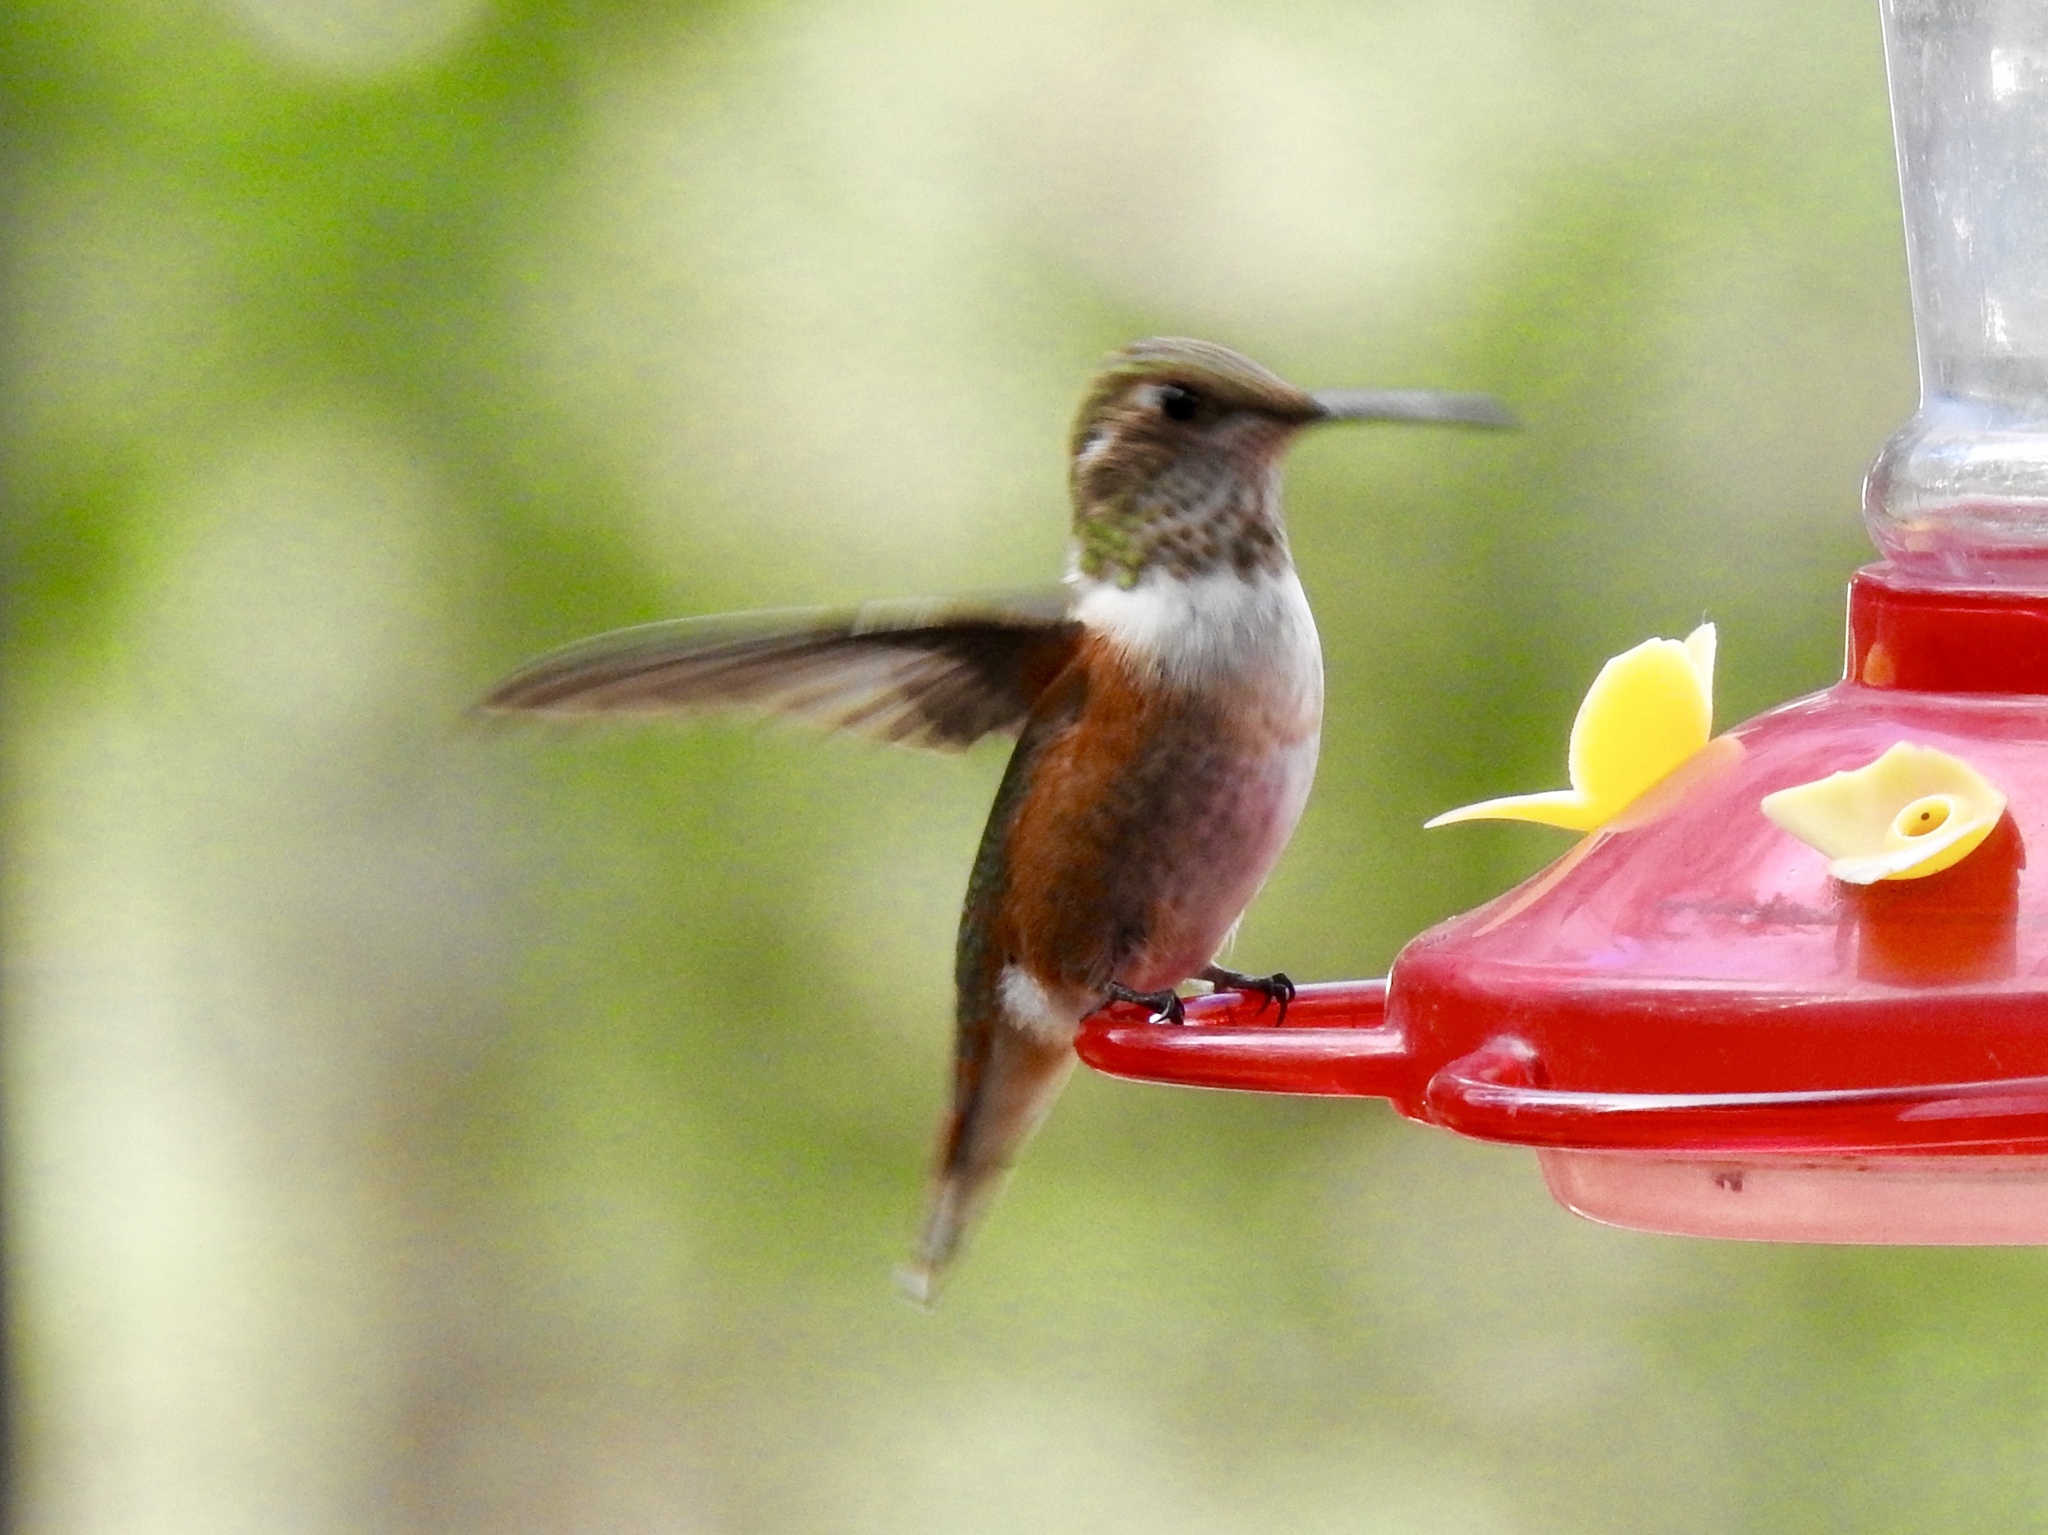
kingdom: Animalia
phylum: Chordata
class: Aves
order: Apodiformes
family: Trochilidae
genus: Selasphorus
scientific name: Selasphorus rufus
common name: Rufous hummingbird
